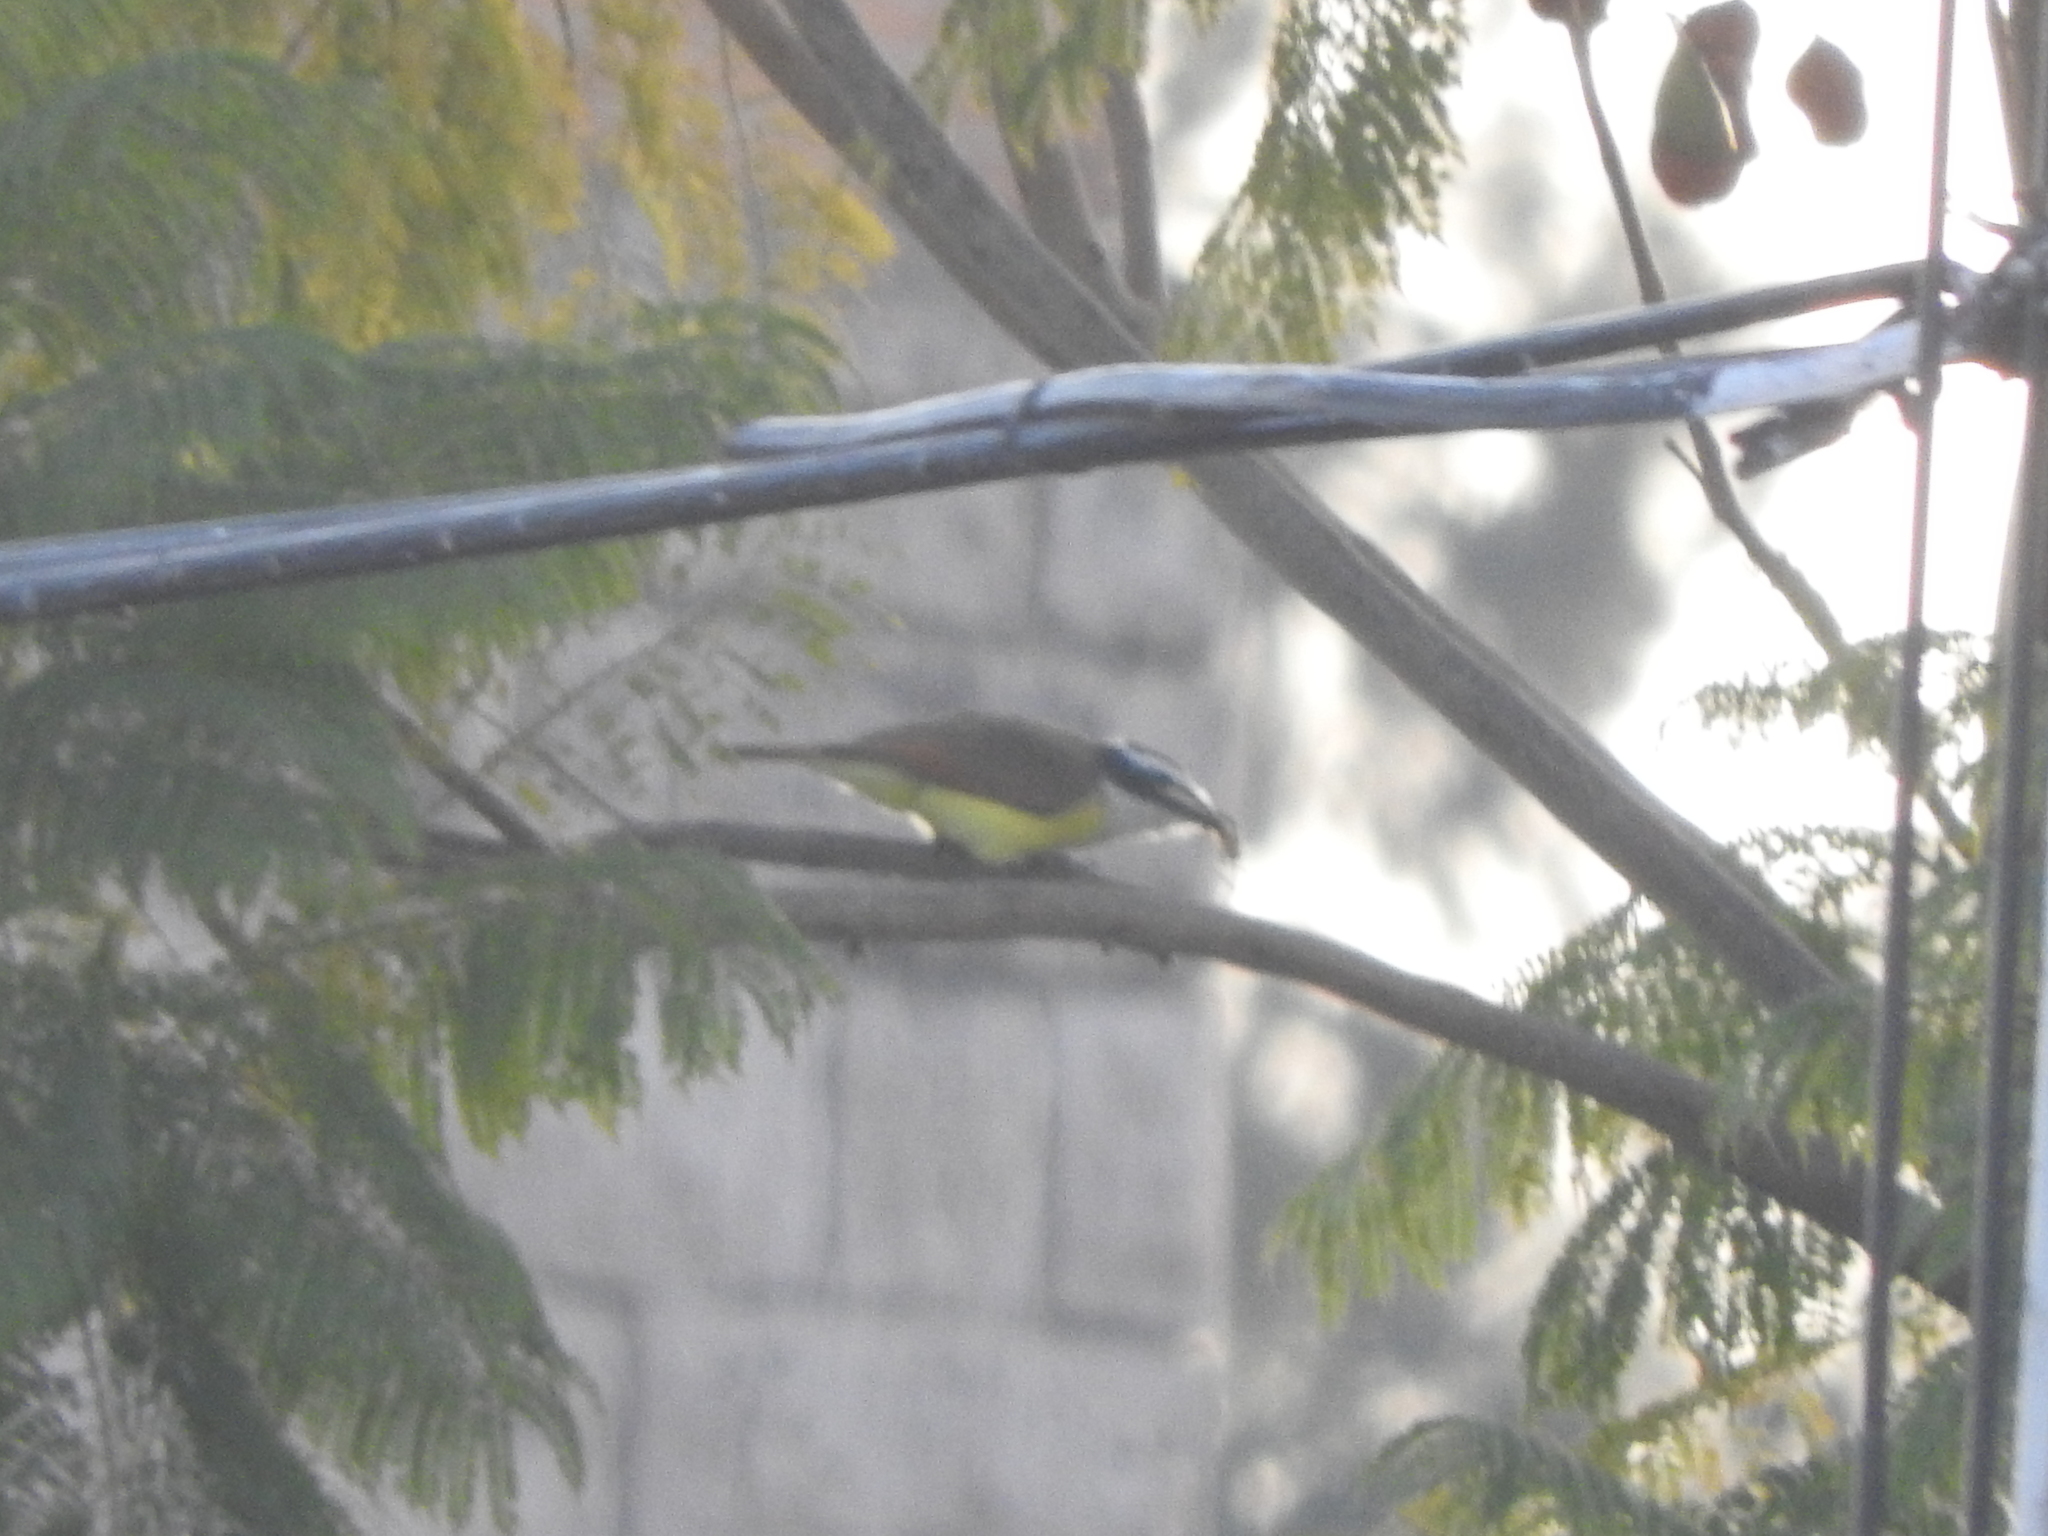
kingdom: Animalia
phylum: Chordata
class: Aves
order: Passeriformes
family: Tyrannidae
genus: Pitangus
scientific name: Pitangus sulphuratus
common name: Great kiskadee
